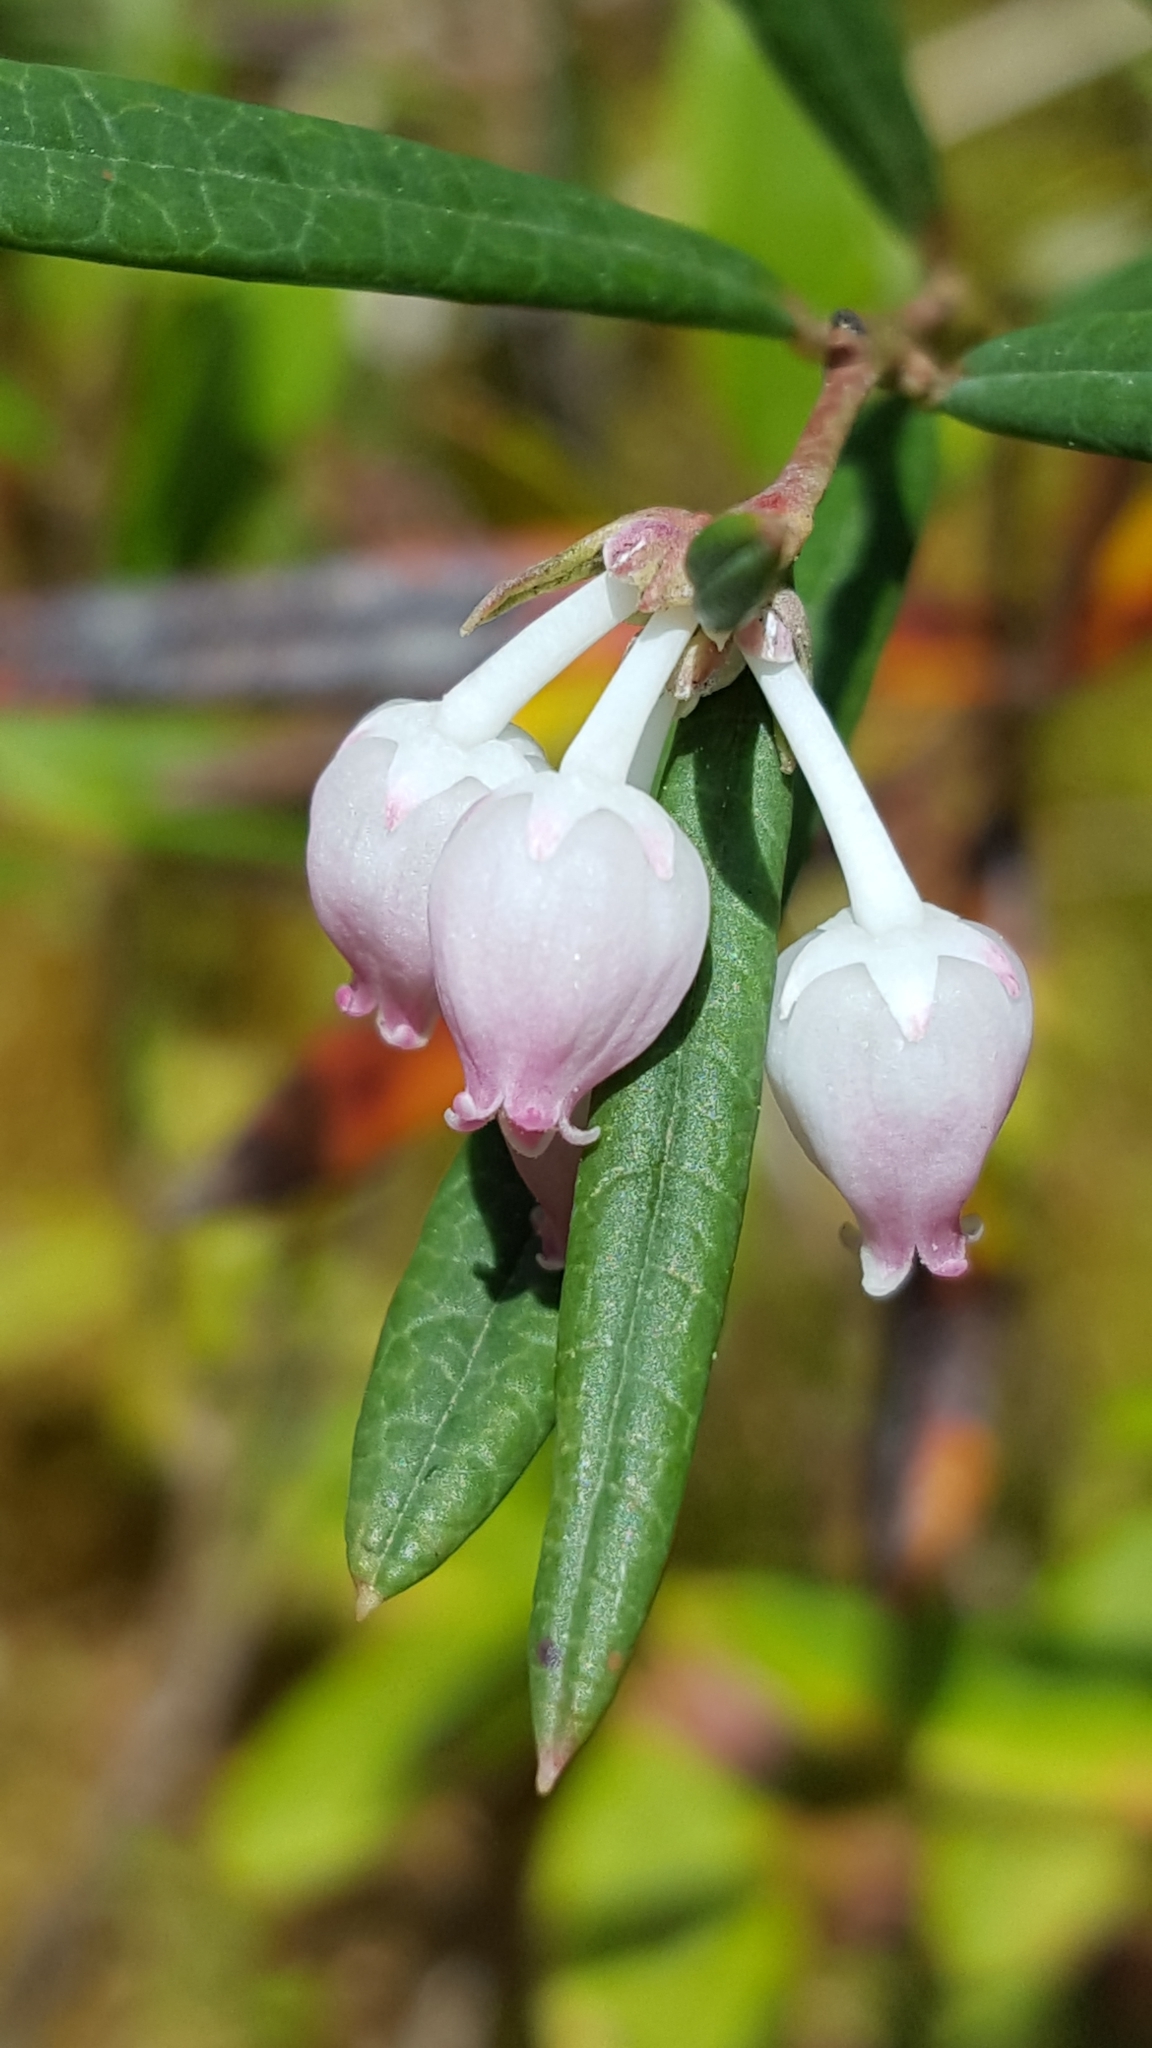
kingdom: Plantae
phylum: Tracheophyta
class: Magnoliopsida
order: Ericales
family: Ericaceae
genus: Andromeda
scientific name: Andromeda polifolia
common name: Bog-rosemary
